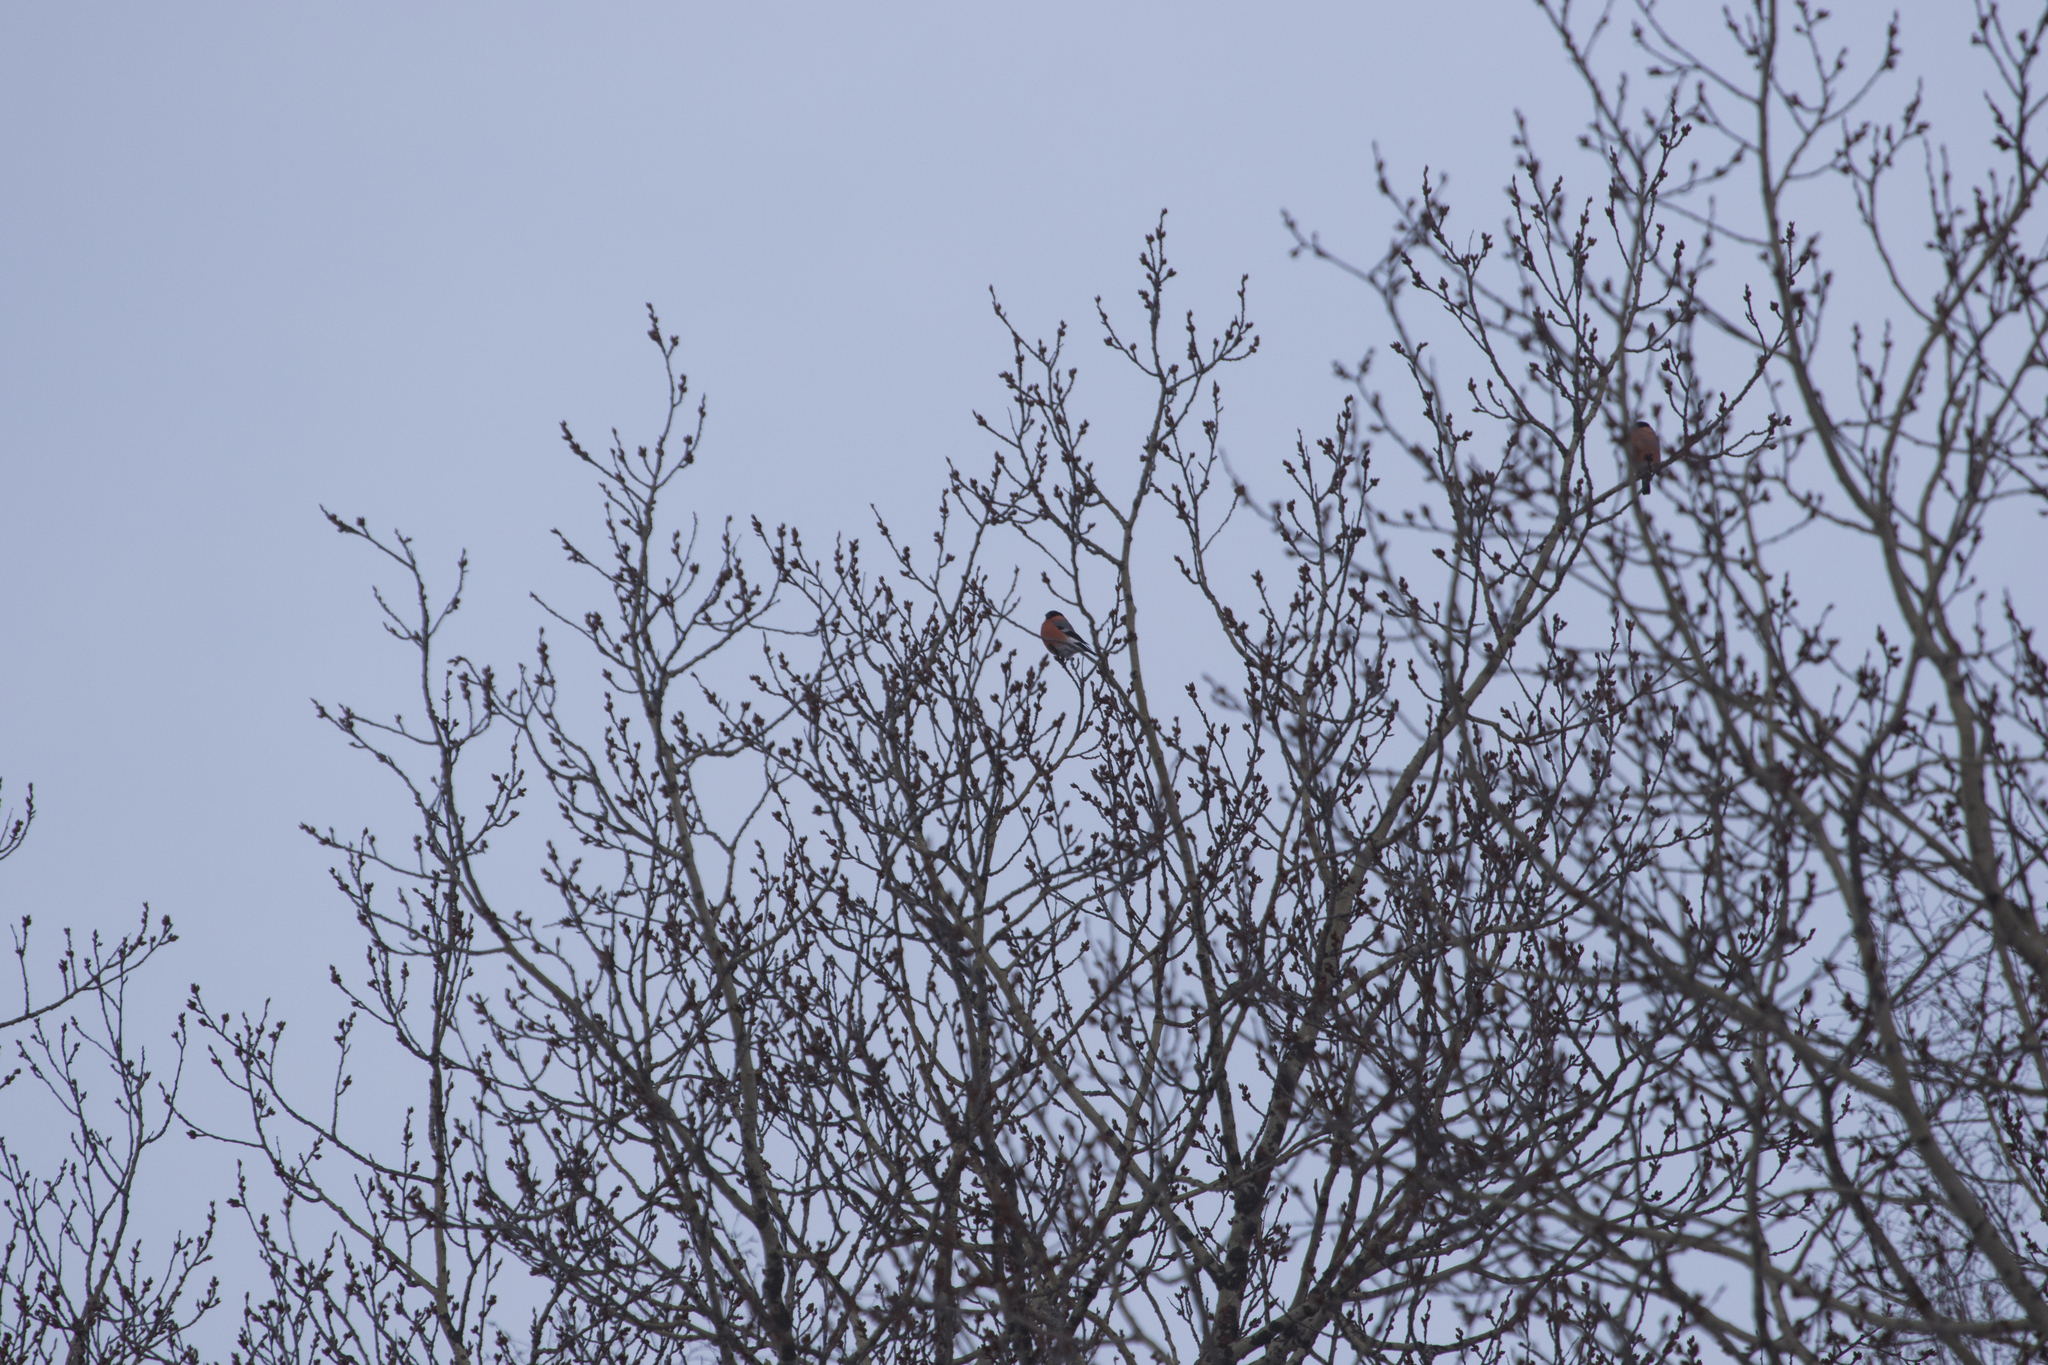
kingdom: Animalia
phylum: Chordata
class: Aves
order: Passeriformes
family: Fringillidae
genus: Pyrrhula
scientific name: Pyrrhula pyrrhula
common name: Eurasian bullfinch
